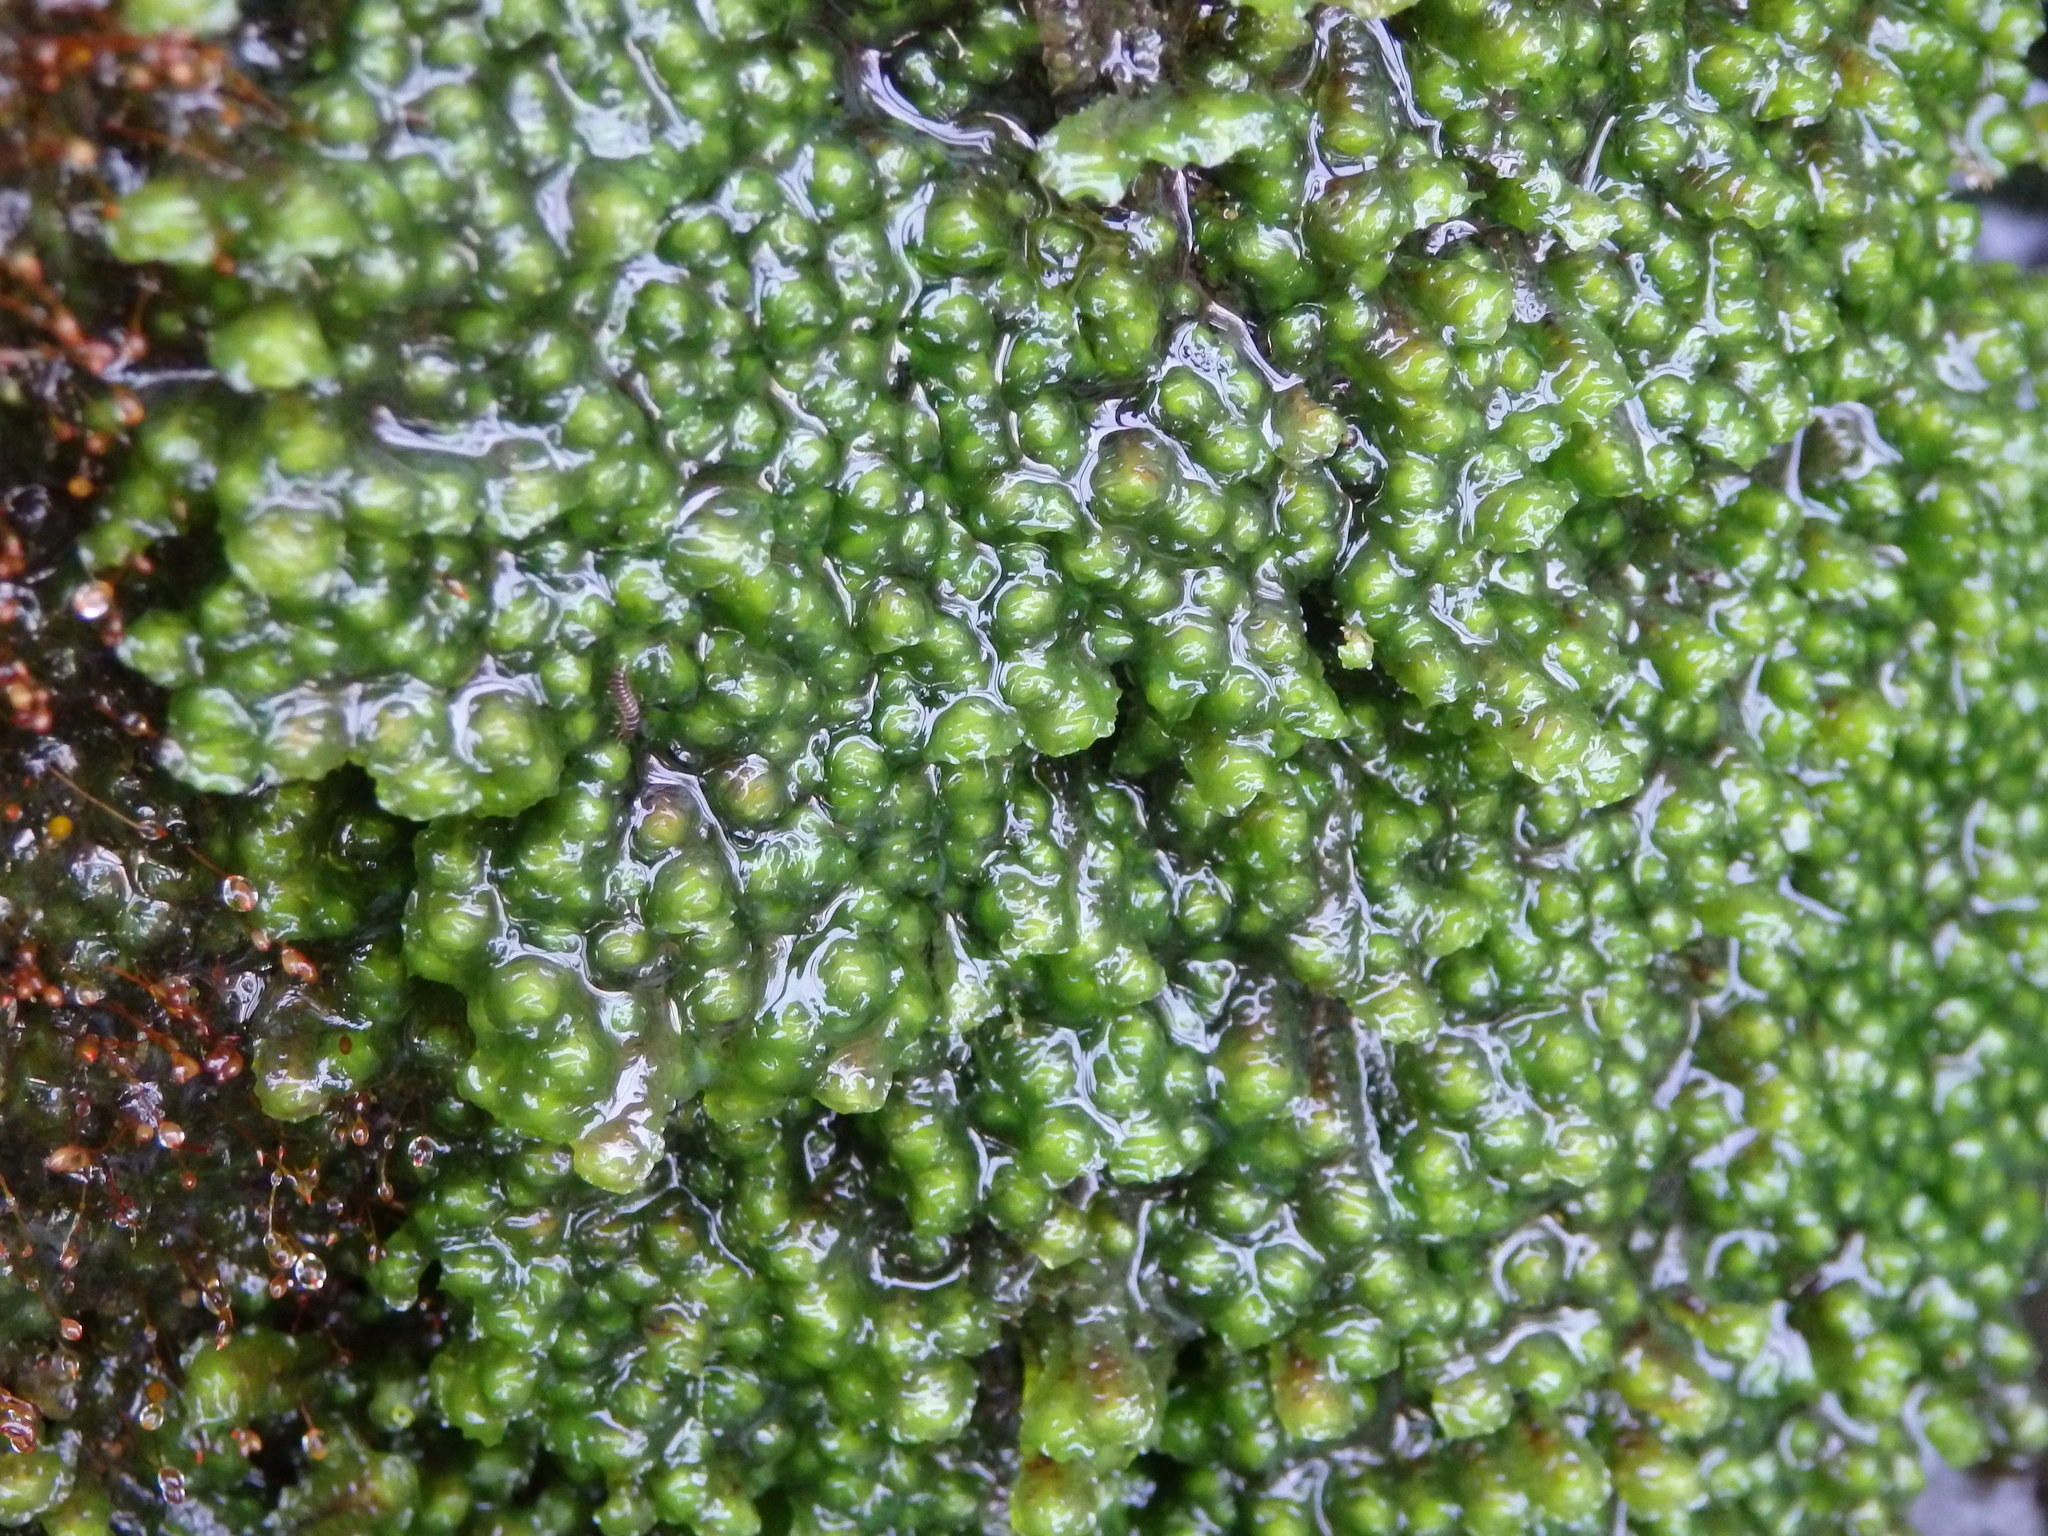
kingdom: Plantae
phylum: Marchantiophyta
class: Jungermanniopsida
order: Jungermanniales
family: Scapaniaceae
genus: Scapania
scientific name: Scapania undulata
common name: Water earwort
